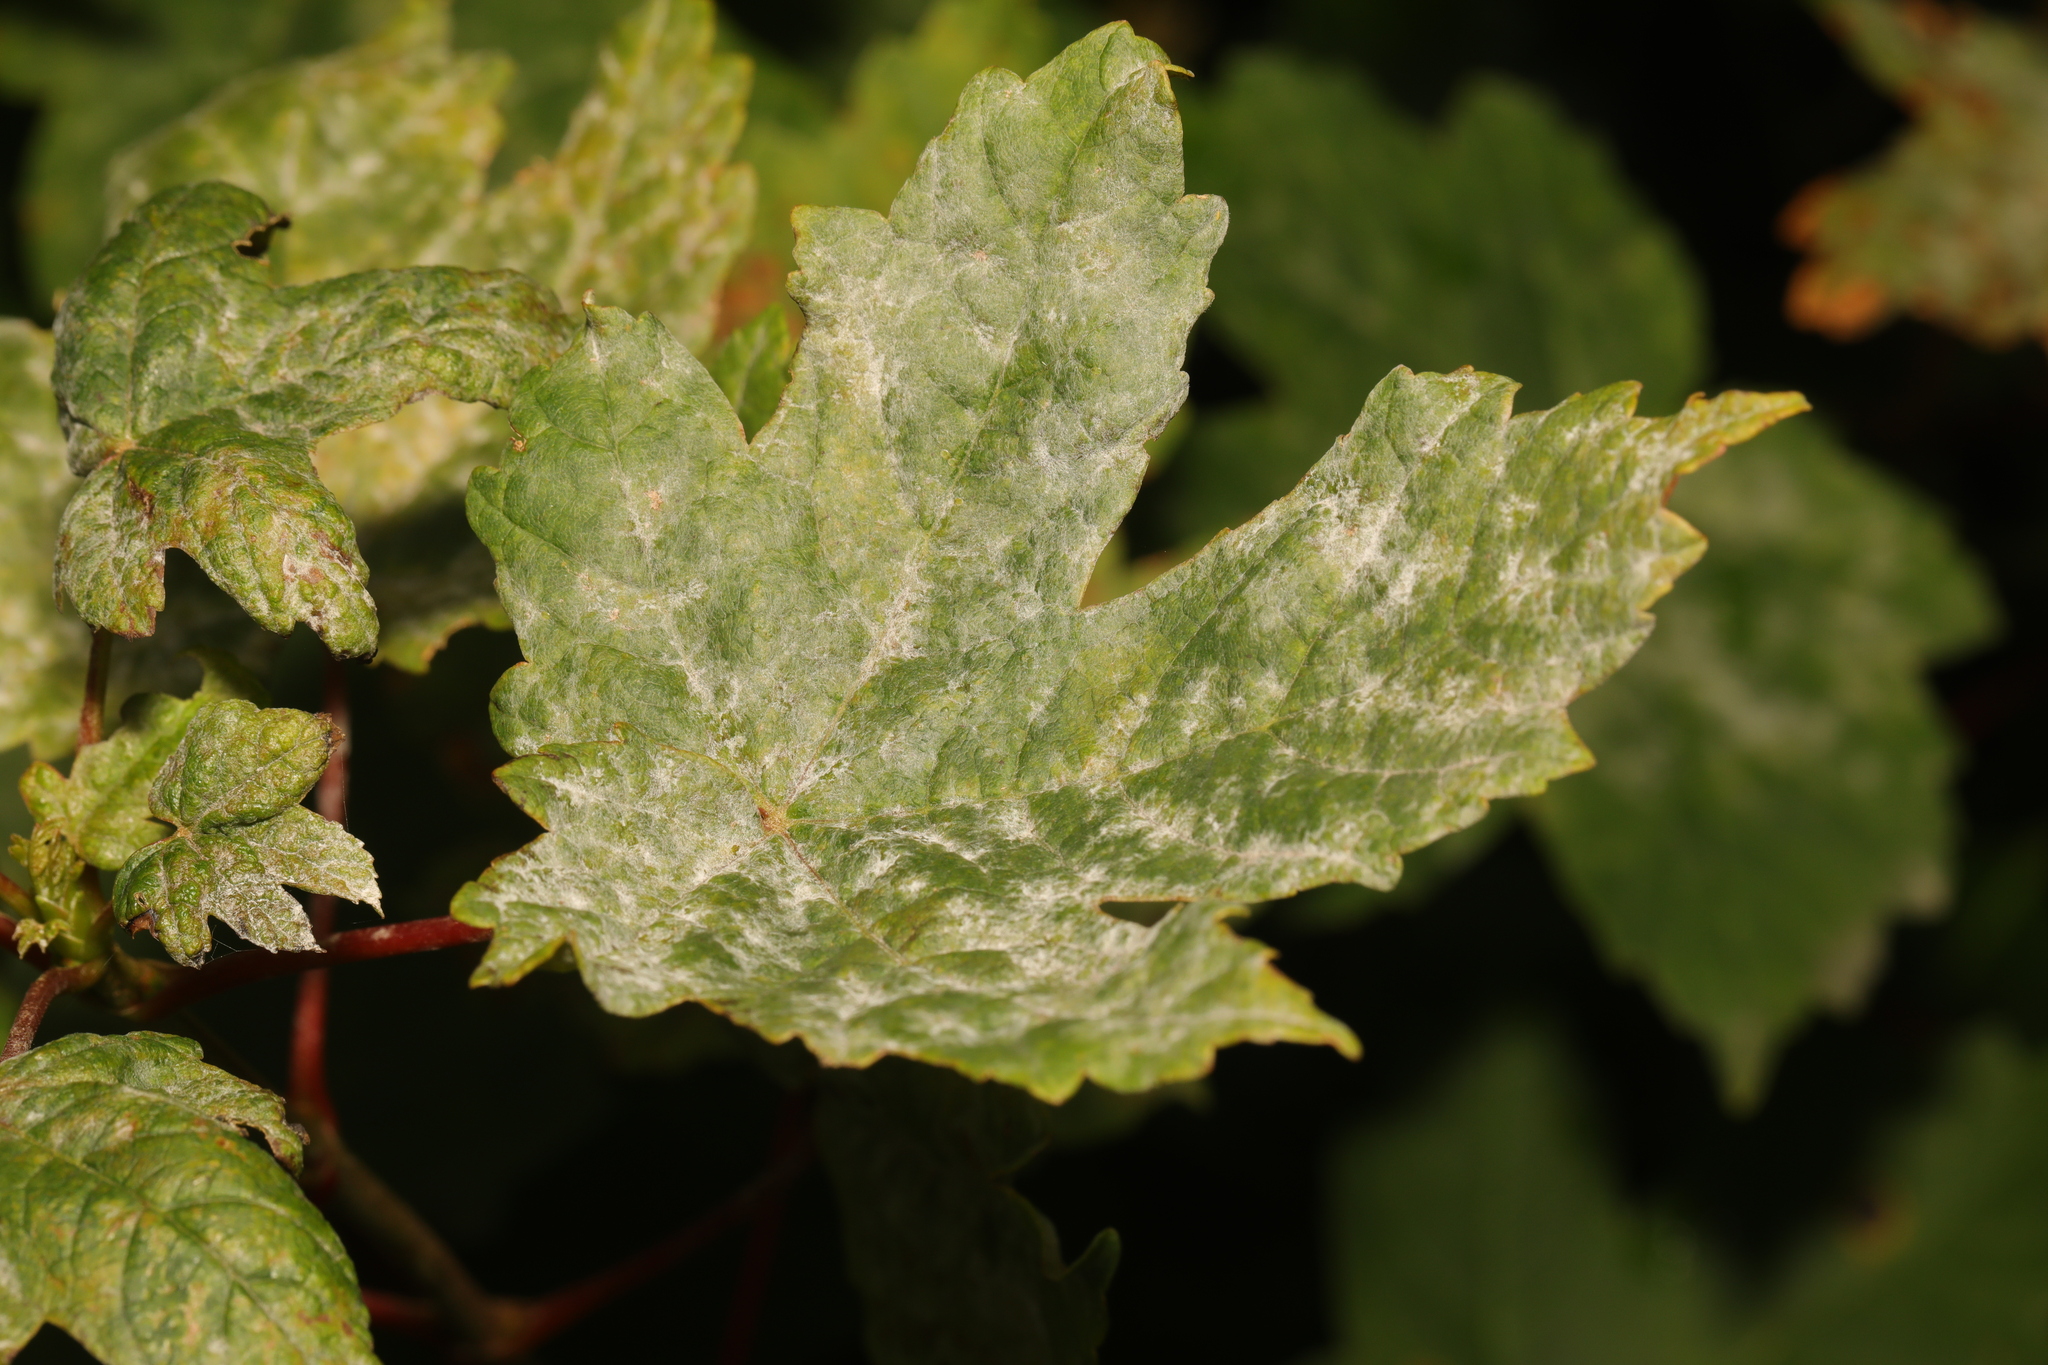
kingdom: Fungi
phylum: Ascomycota
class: Leotiomycetes
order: Helotiales
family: Erysiphaceae
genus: Sawadaea
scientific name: Sawadaea bicornis
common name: Maple mildew
